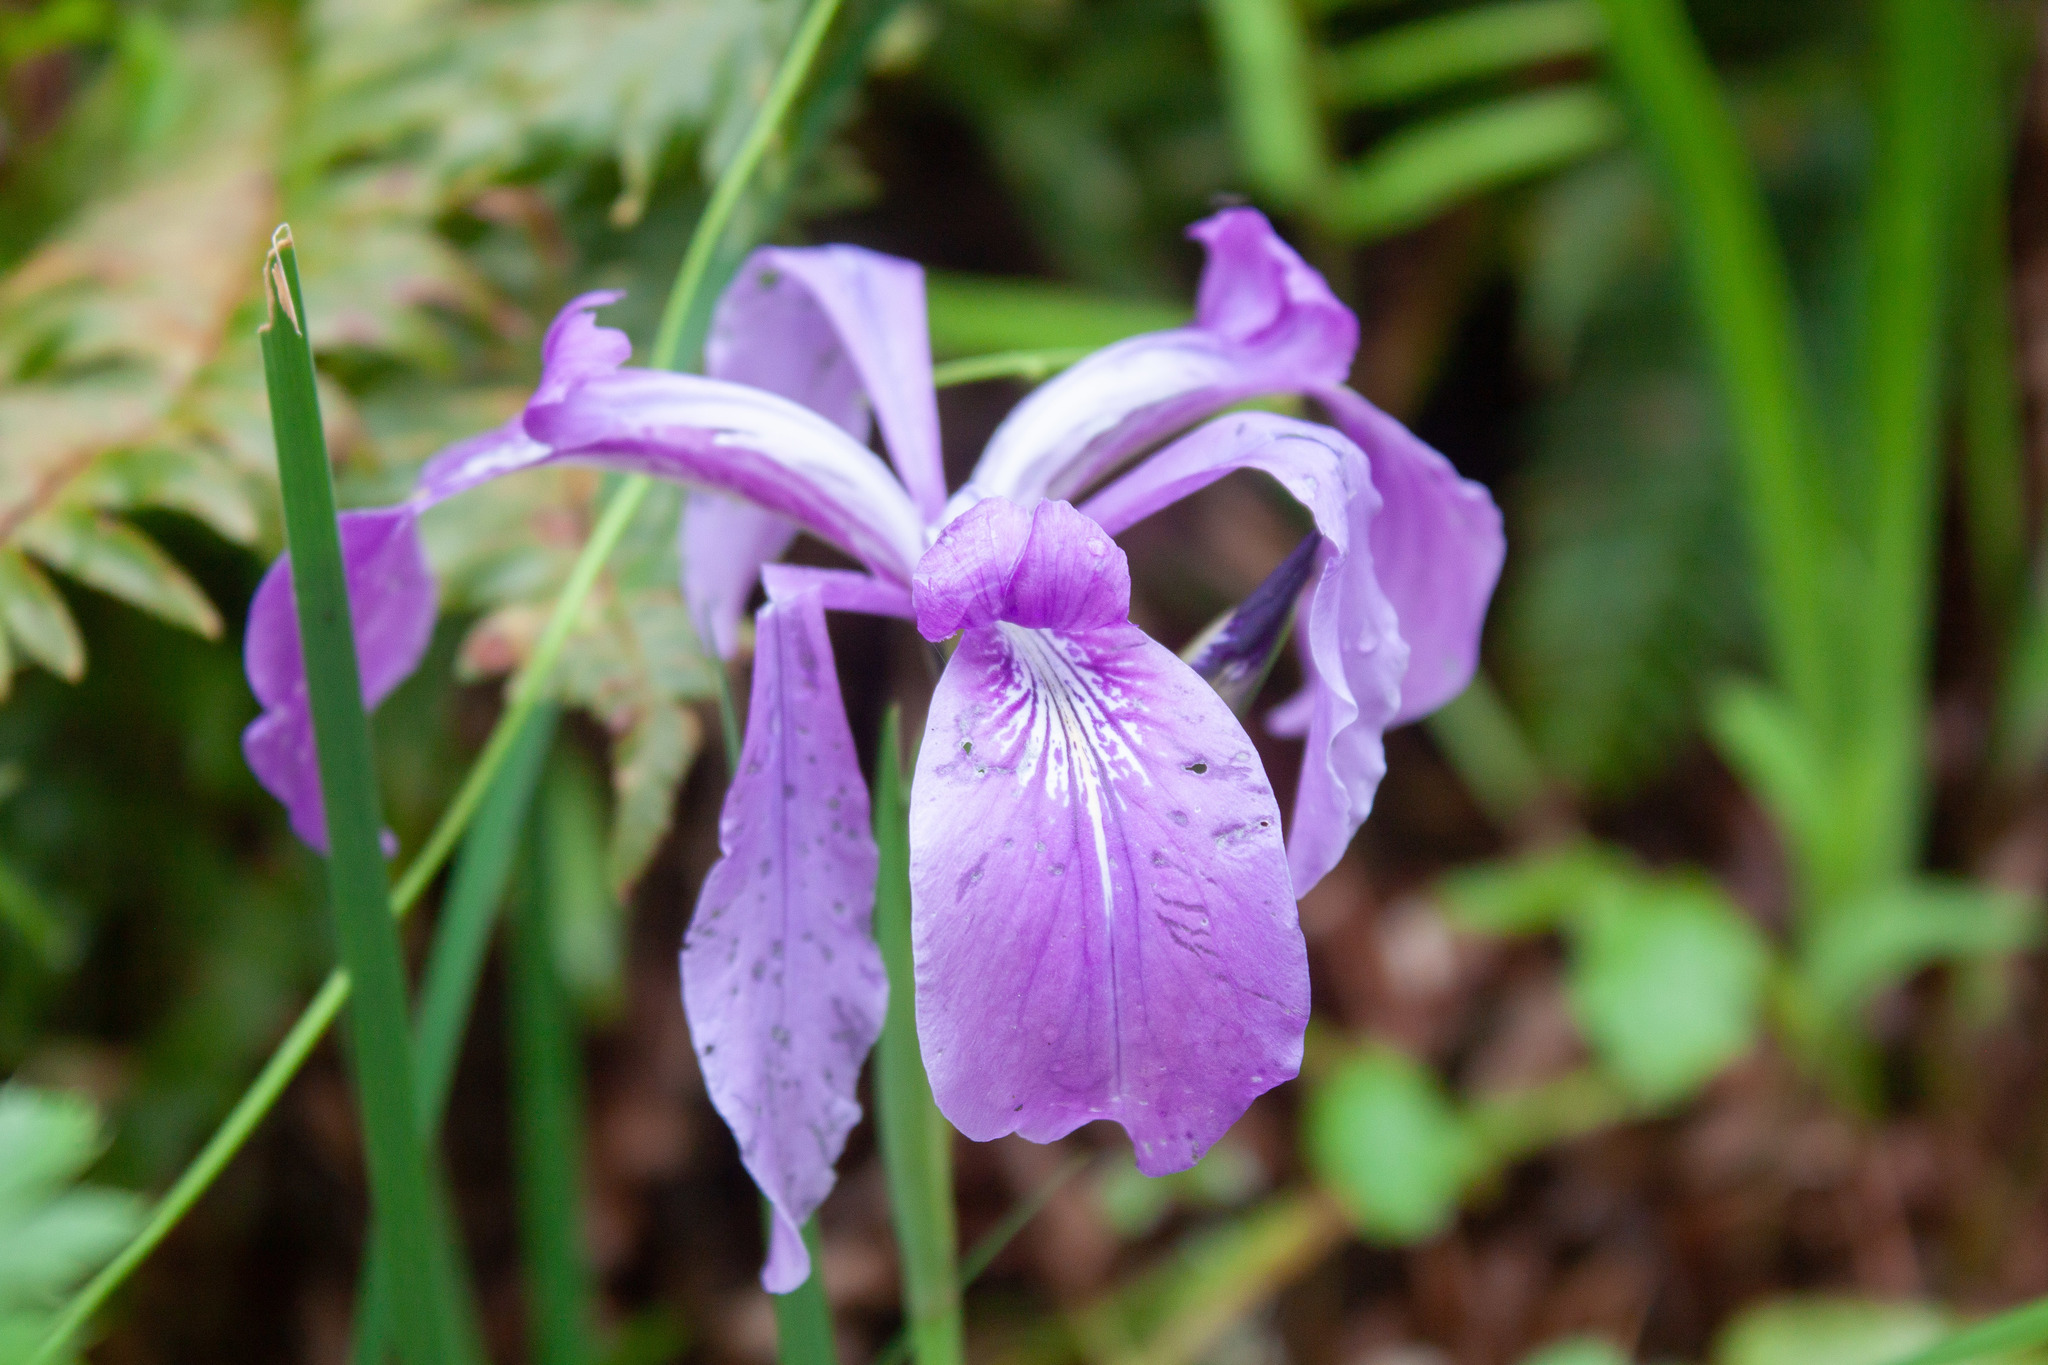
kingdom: Plantae
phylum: Tracheophyta
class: Liliopsida
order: Asparagales
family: Iridaceae
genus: Iris
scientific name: Iris tenax
